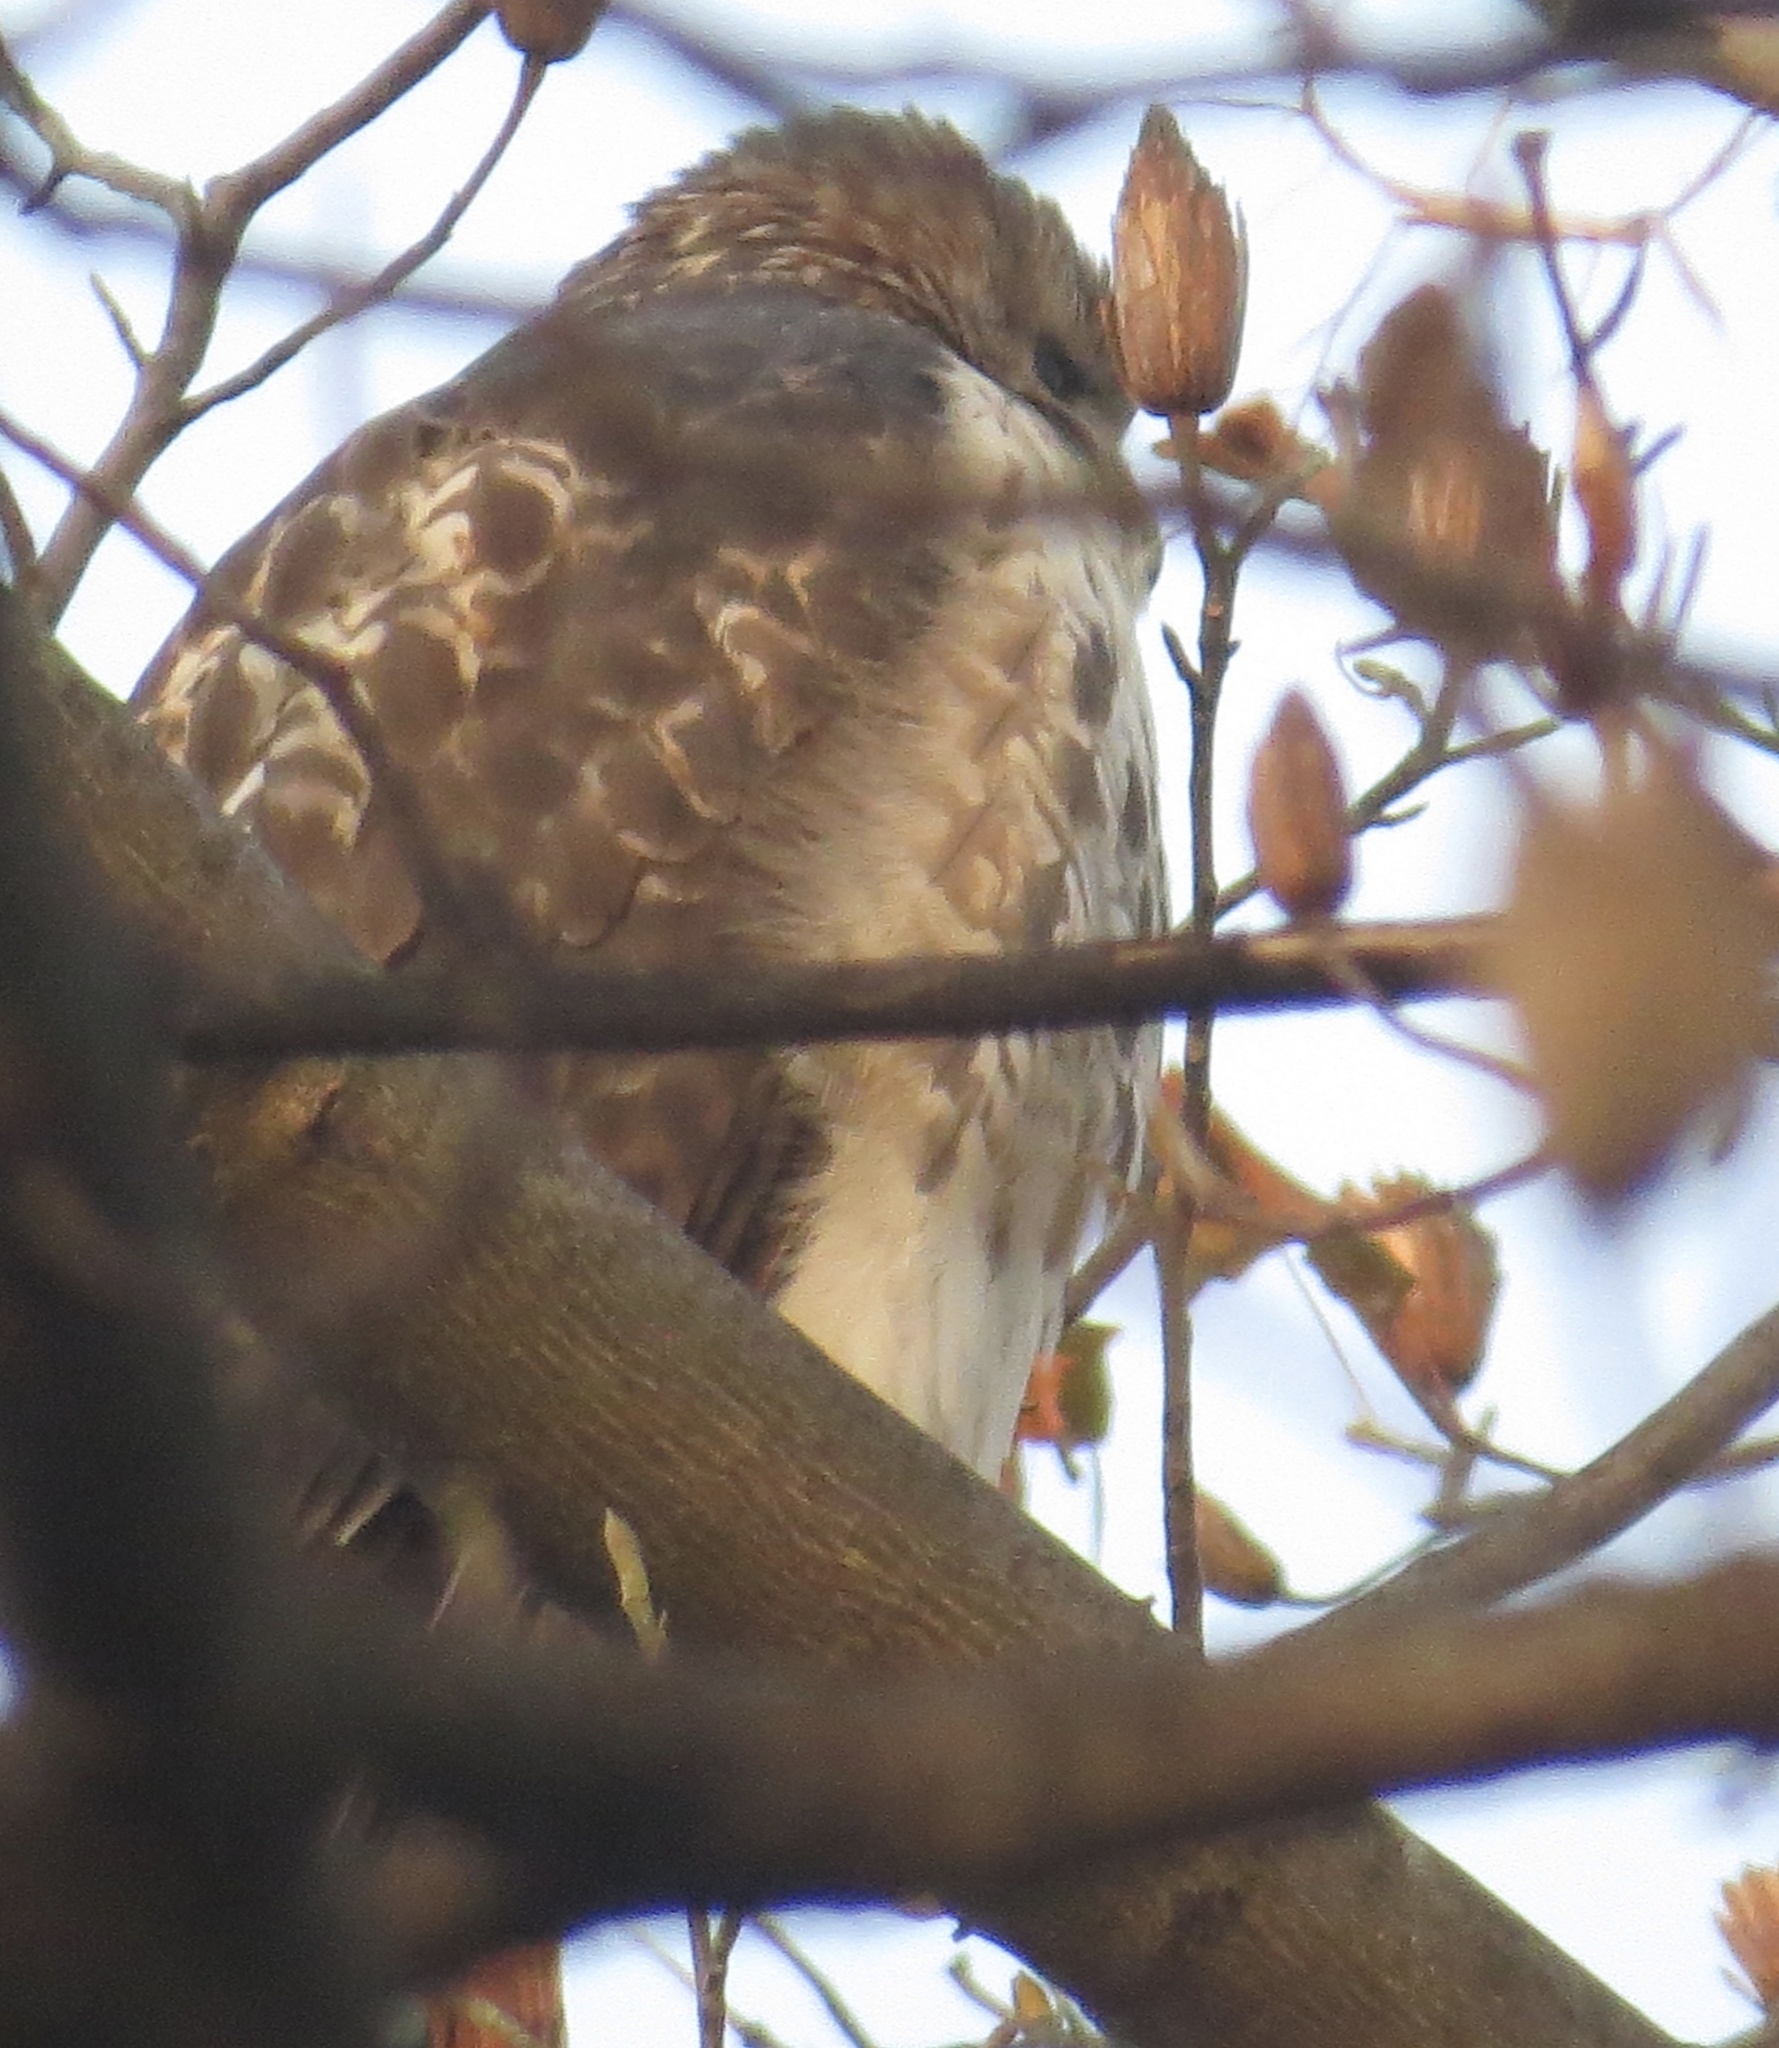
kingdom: Animalia
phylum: Chordata
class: Aves
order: Accipitriformes
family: Accipitridae
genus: Buteo
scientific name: Buteo jamaicensis
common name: Red-tailed hawk
